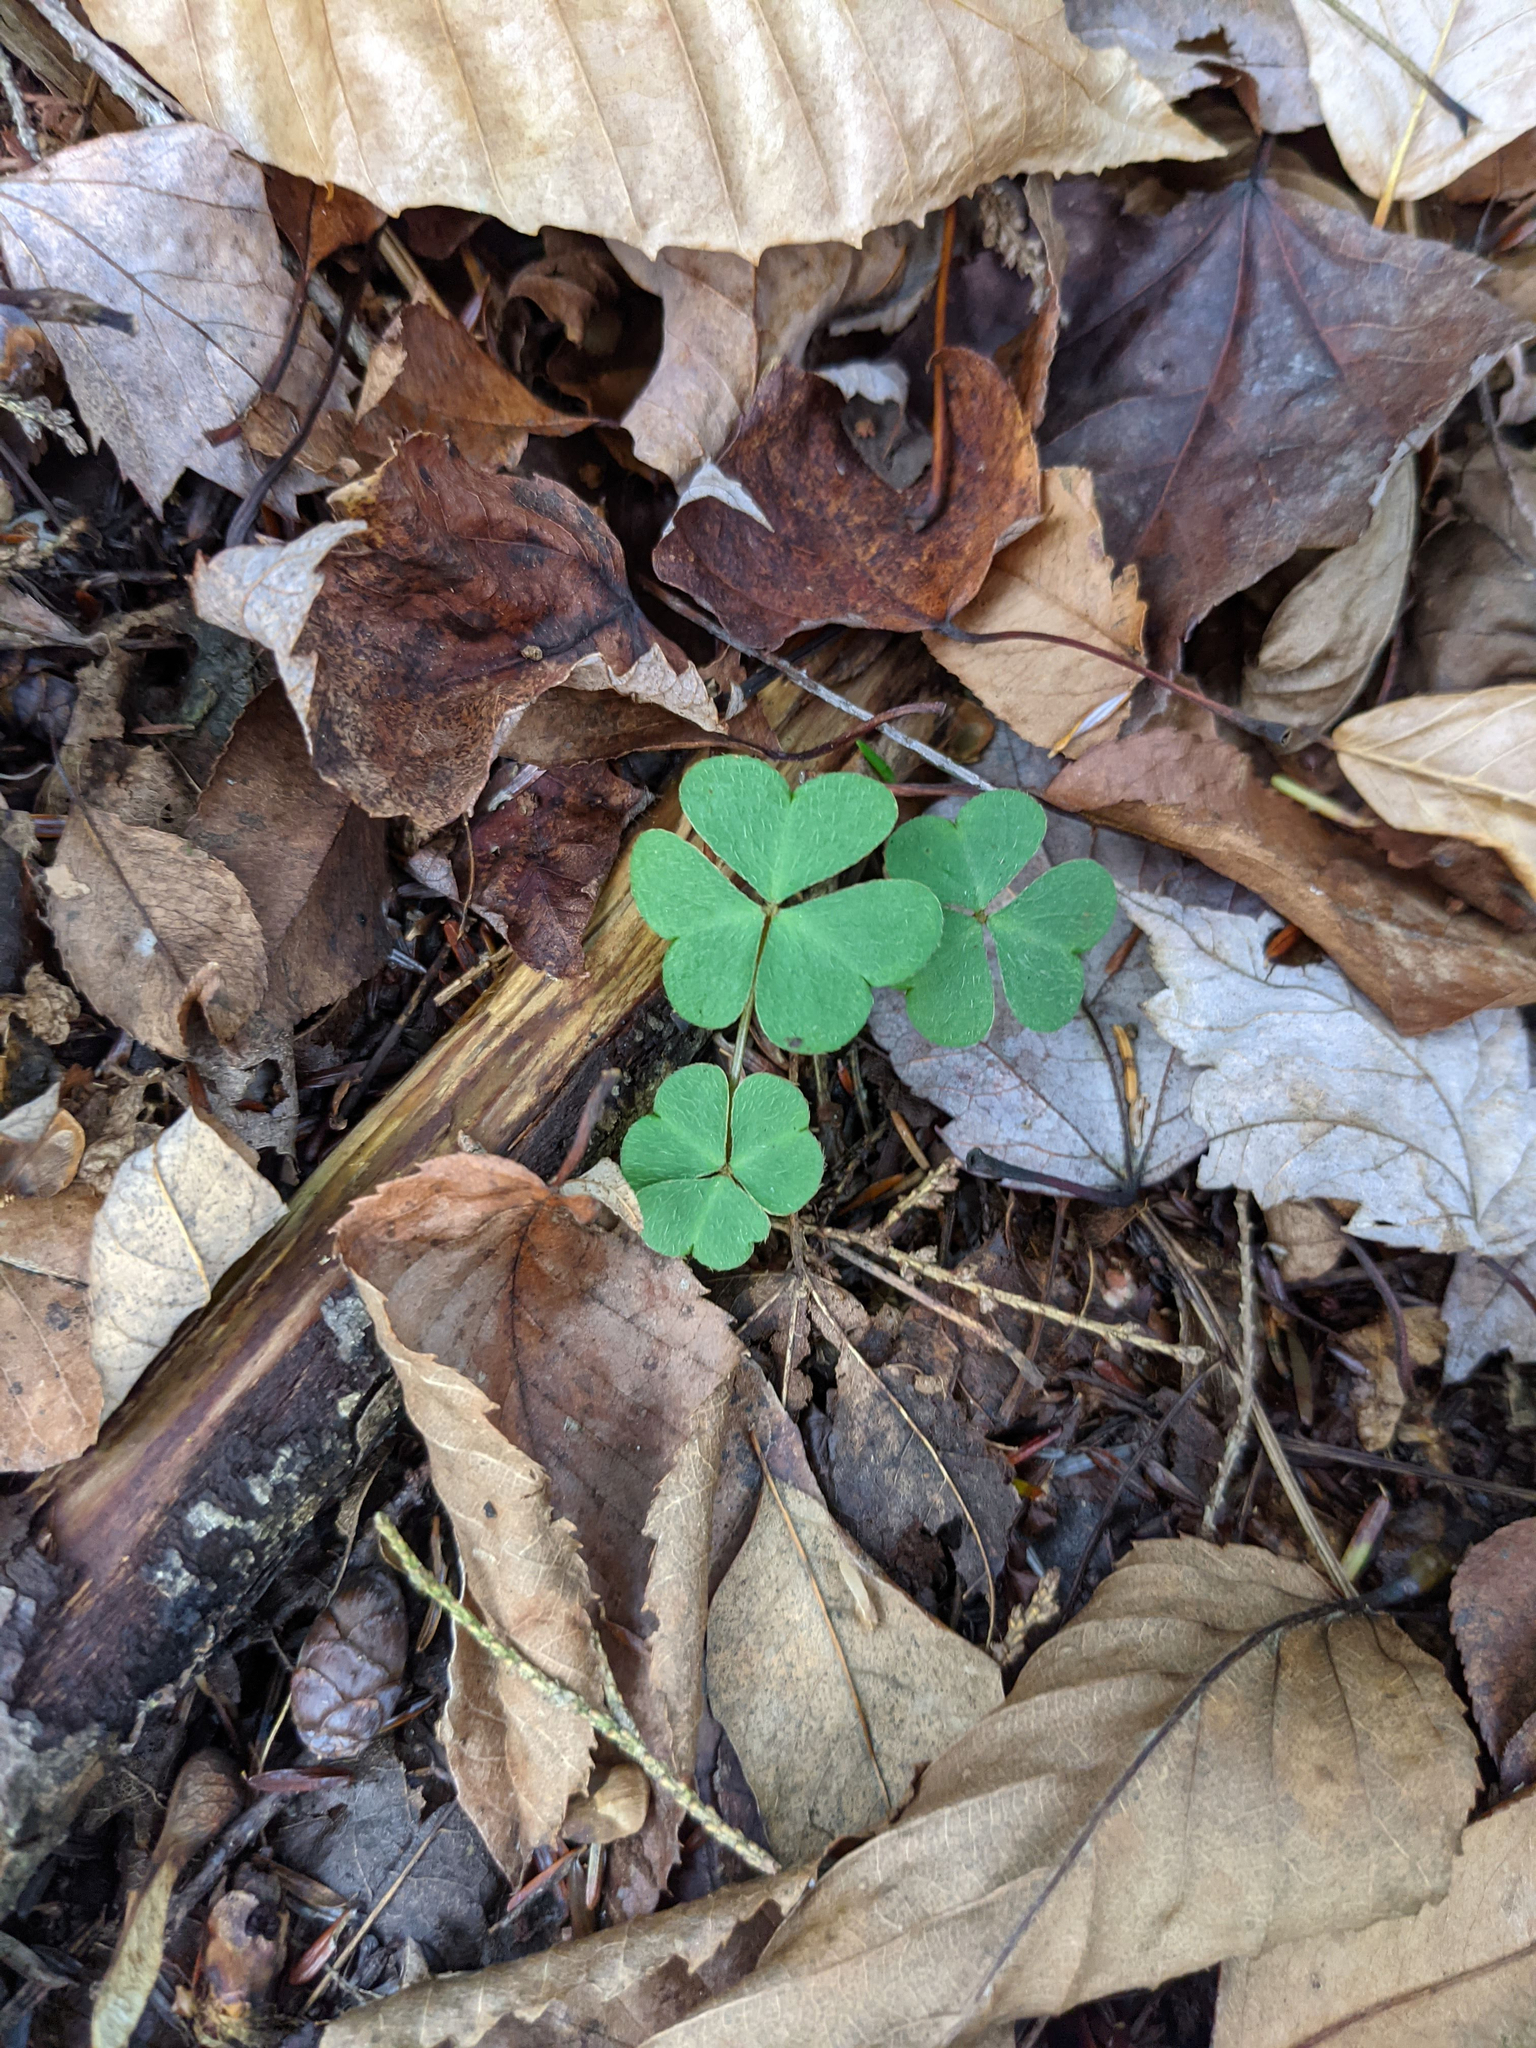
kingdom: Plantae
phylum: Tracheophyta
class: Magnoliopsida
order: Oxalidales
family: Oxalidaceae
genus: Oxalis
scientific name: Oxalis montana
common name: American wood-sorrel
